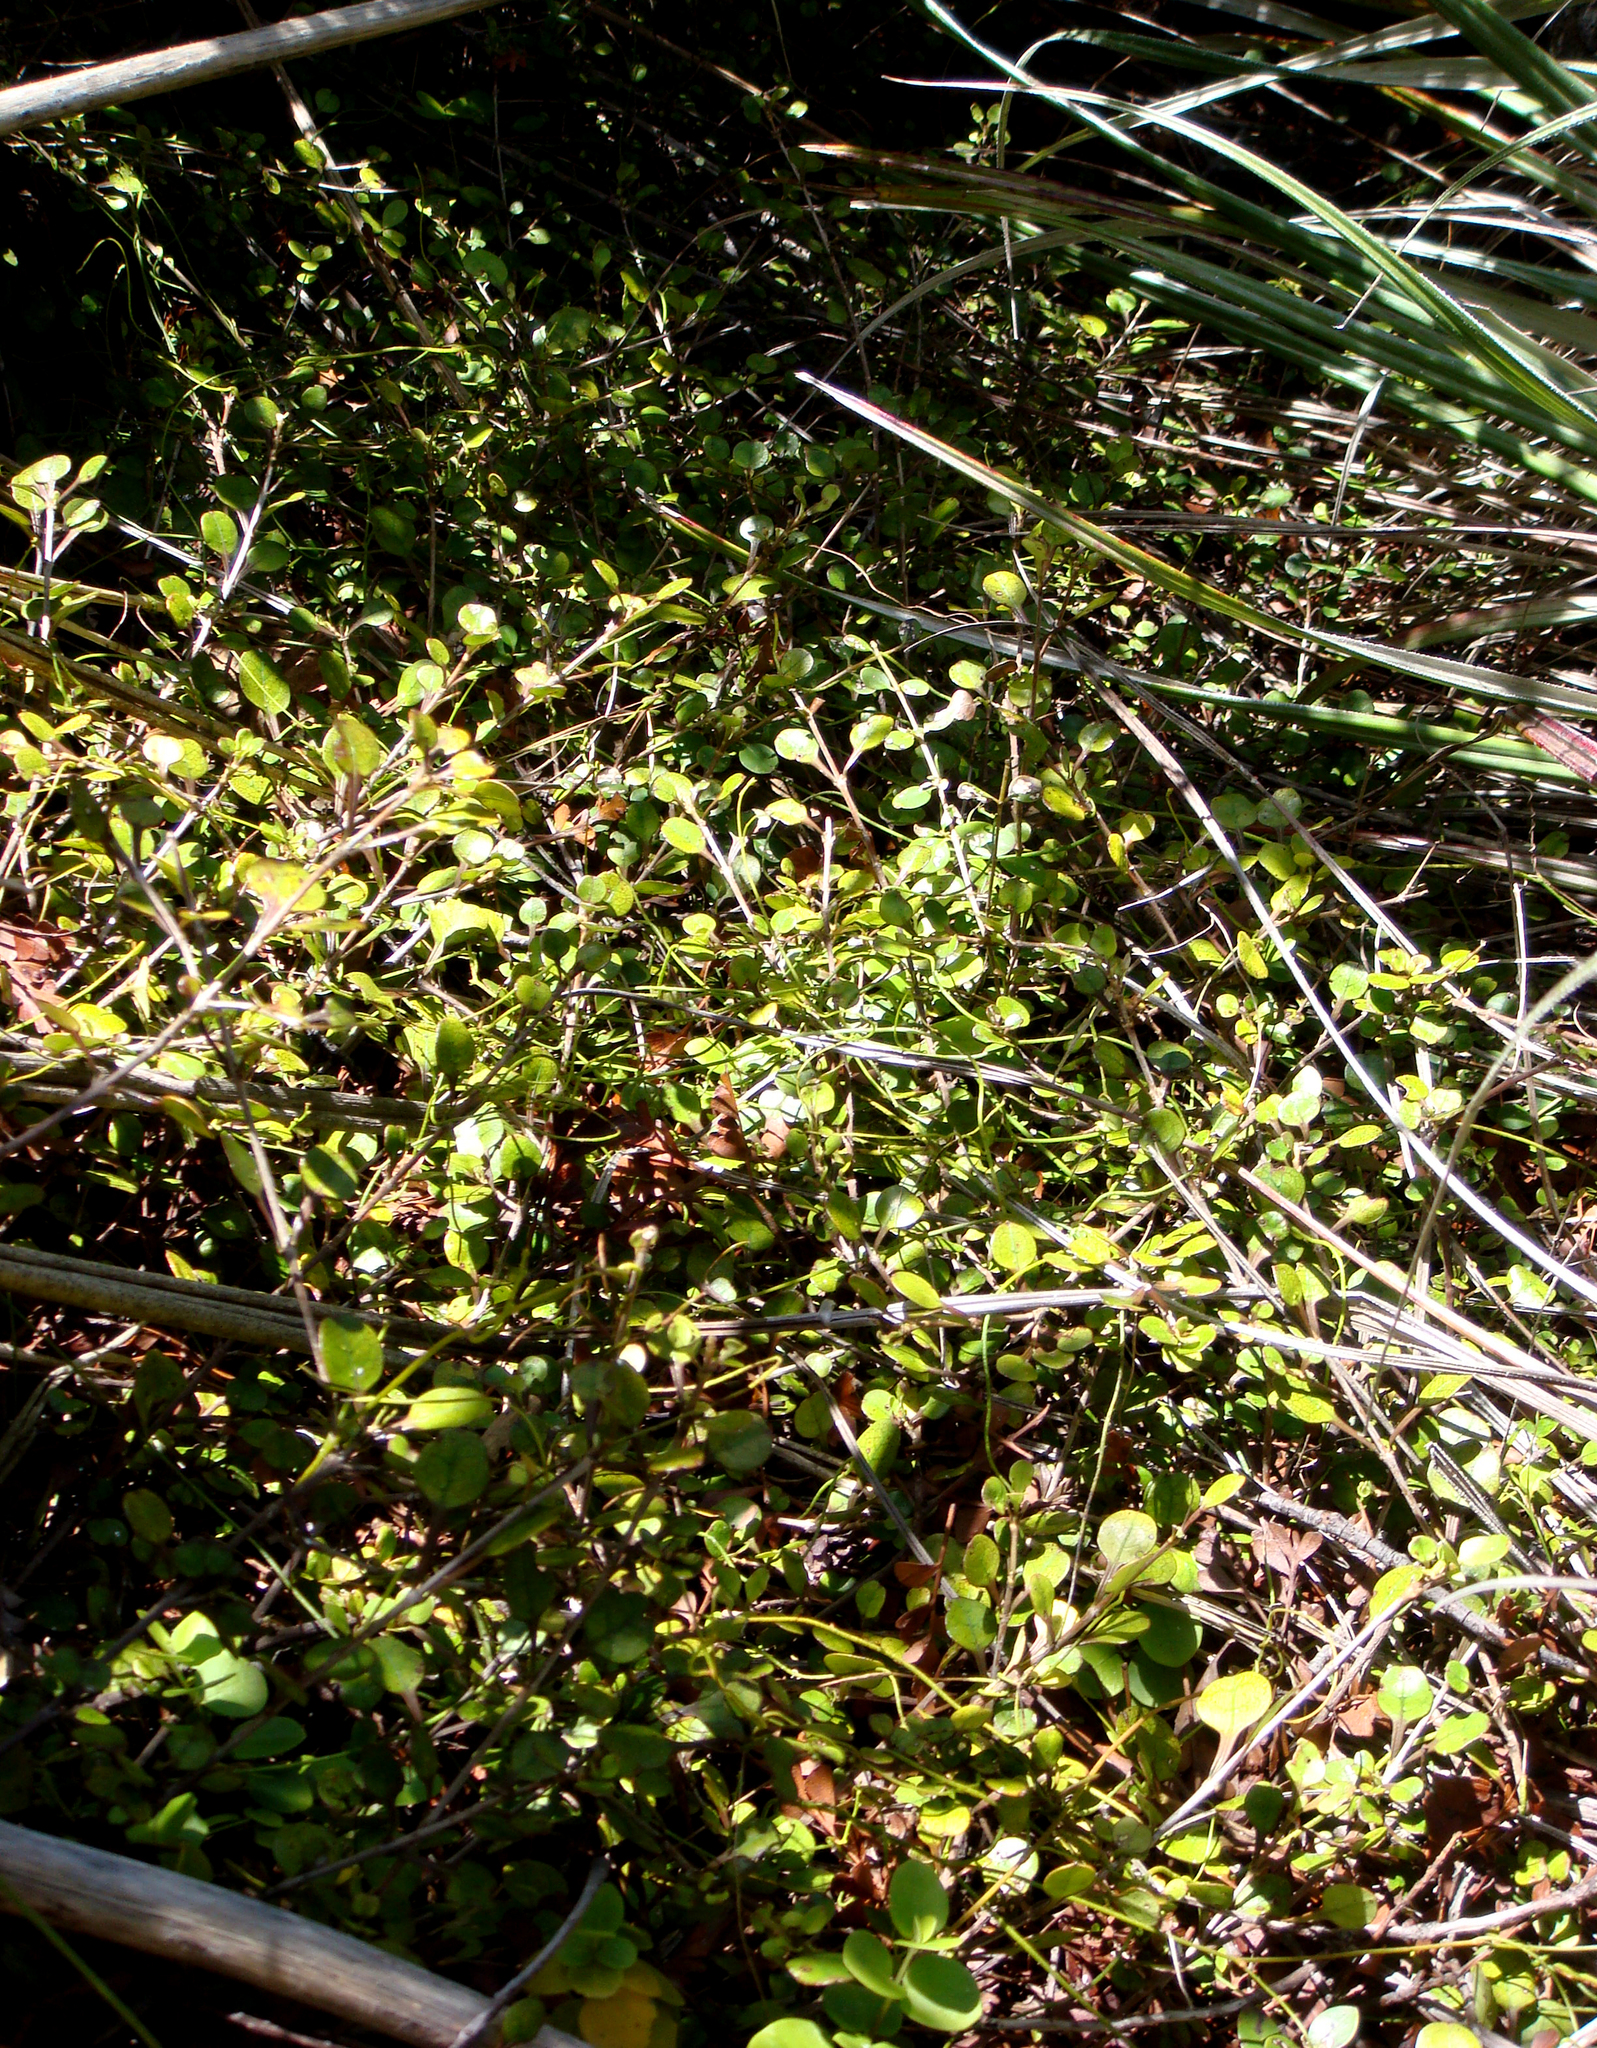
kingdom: Plantae
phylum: Tracheophyta
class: Magnoliopsida
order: Gentianales
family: Rubiaceae
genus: Coprosma
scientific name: Coprosma spathulata
